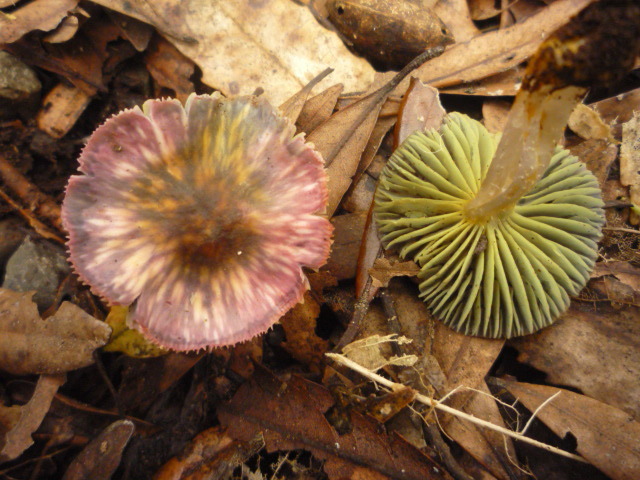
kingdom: Fungi
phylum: Basidiomycota
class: Agaricomycetes
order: Agaricales
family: Hygrophoraceae
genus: Humidicutis
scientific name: Humidicutis luteovirens
